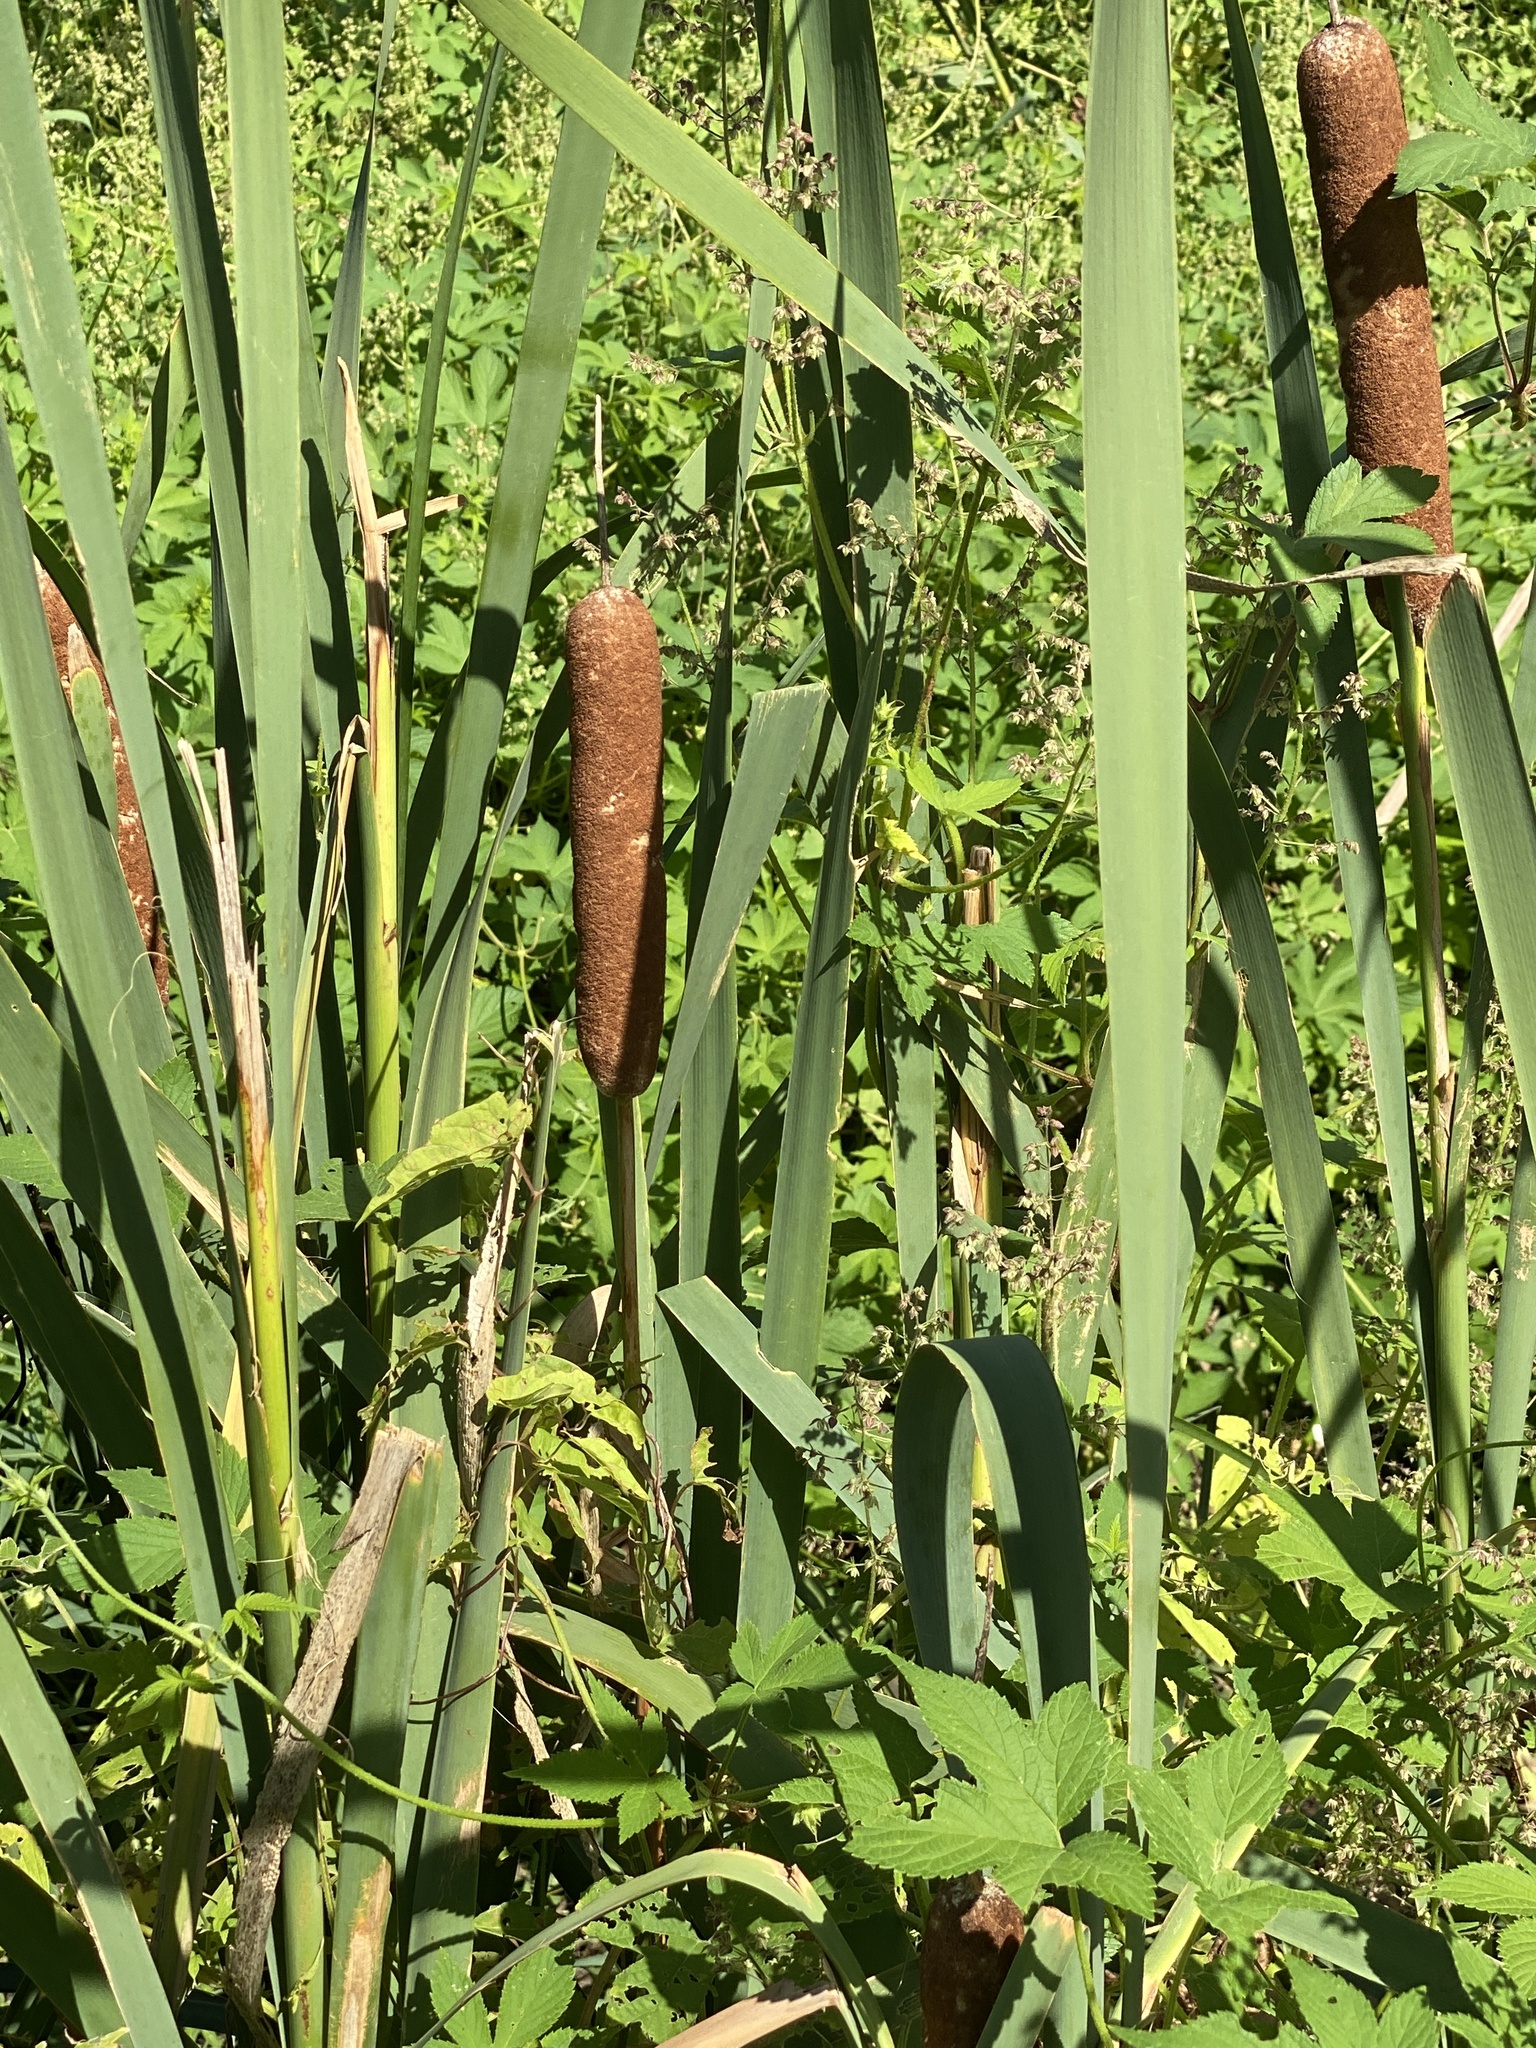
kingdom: Plantae
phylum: Tracheophyta
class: Liliopsida
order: Poales
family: Typhaceae
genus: Typha
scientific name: Typha latifolia
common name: Broadleaf cattail
